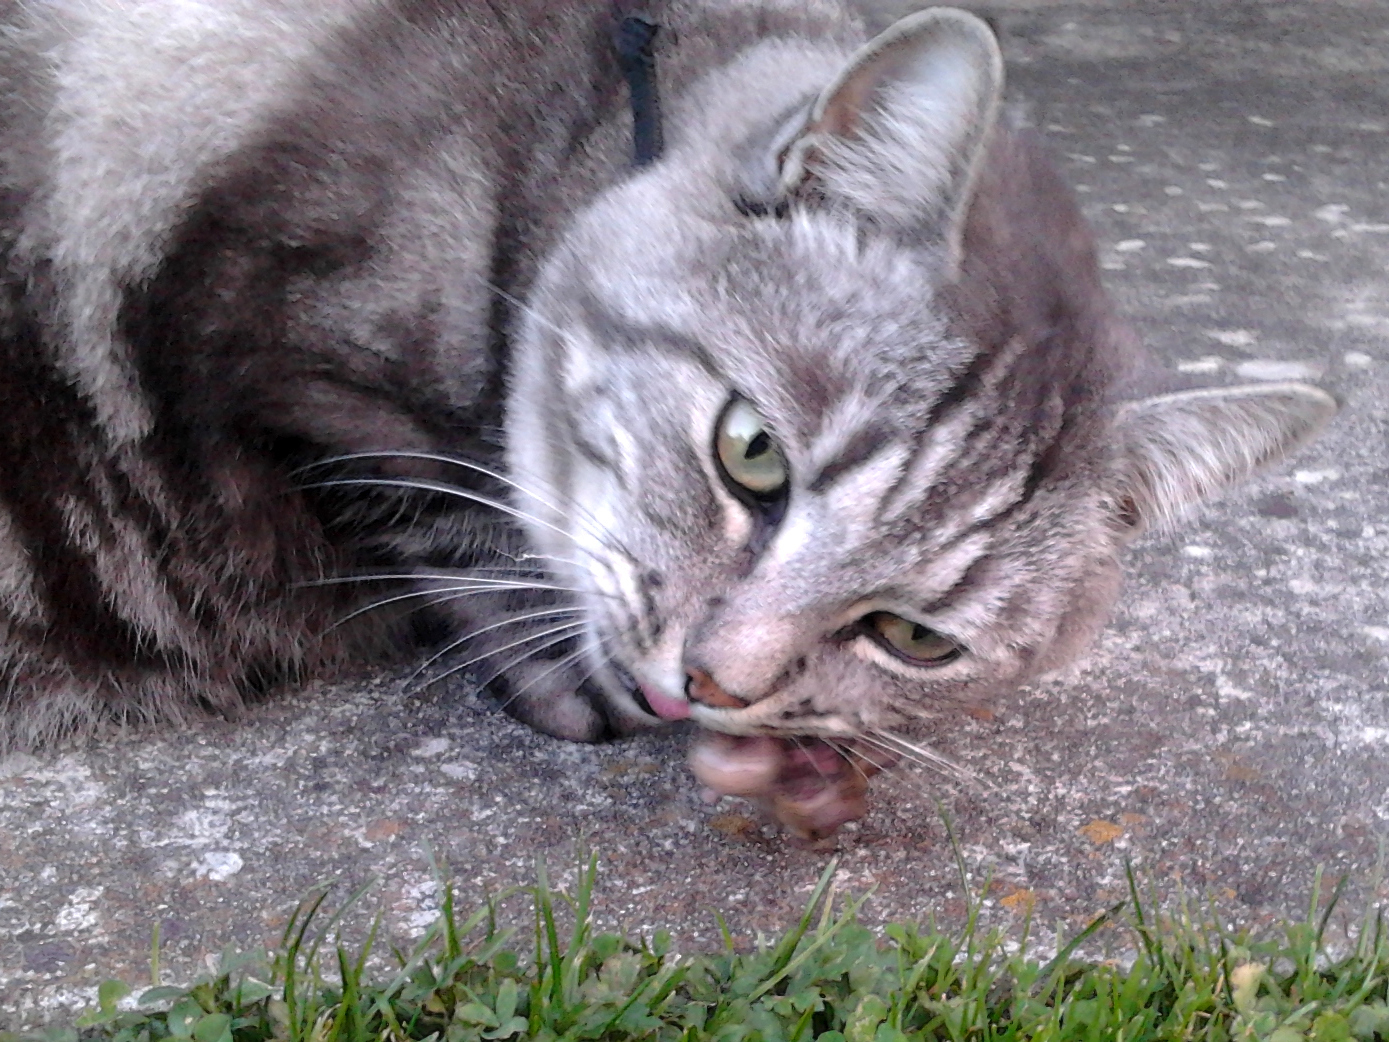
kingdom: Animalia
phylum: Chordata
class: Mammalia
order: Rodentia
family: Muridae
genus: Mus
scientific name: Mus musculus
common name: House mouse
